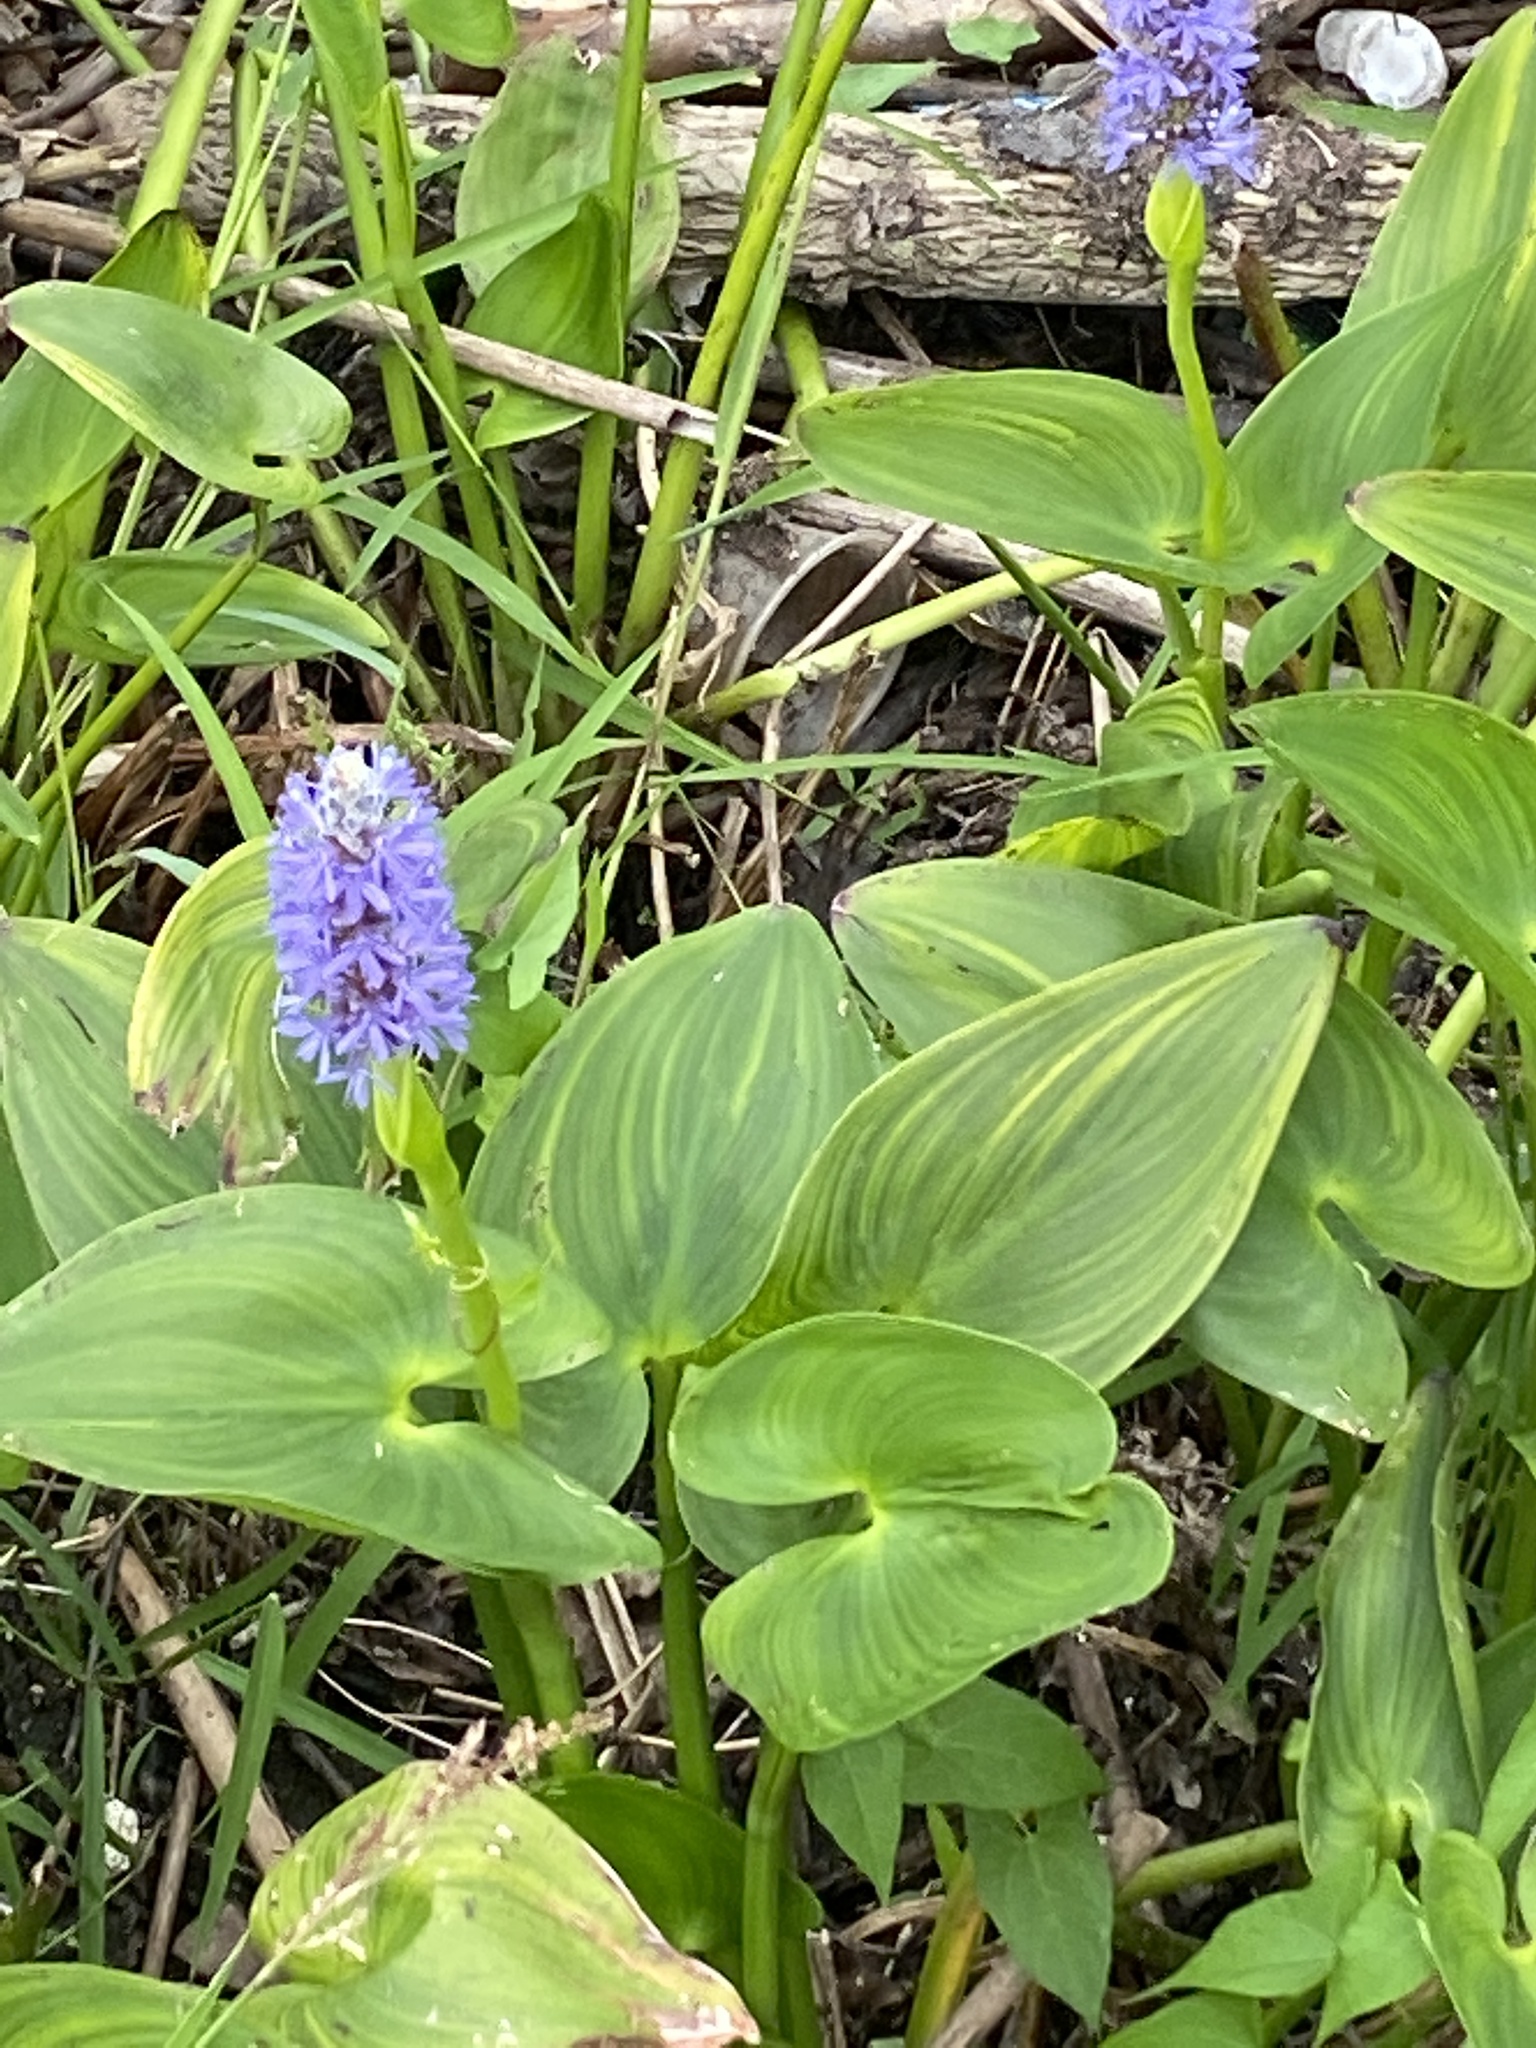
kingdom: Plantae
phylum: Tracheophyta
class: Liliopsida
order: Commelinales
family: Pontederiaceae
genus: Pontederia
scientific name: Pontederia cordata
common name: Pickerelweed
